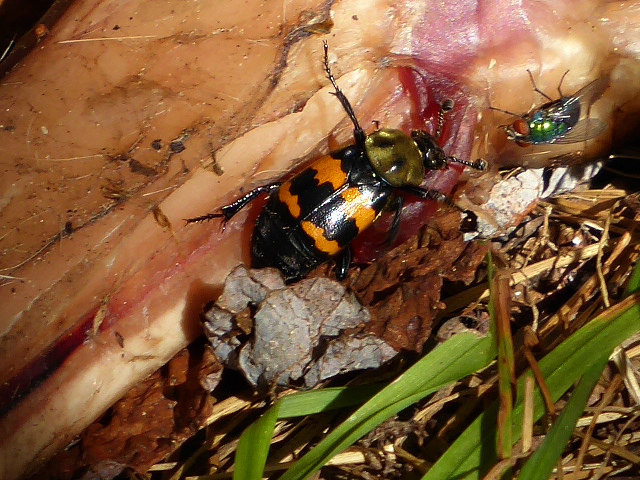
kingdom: Animalia
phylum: Arthropoda
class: Insecta
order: Coleoptera
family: Staphylinidae
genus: Nicrophorus
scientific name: Nicrophorus tomentosus
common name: Tomentose burying beetle
